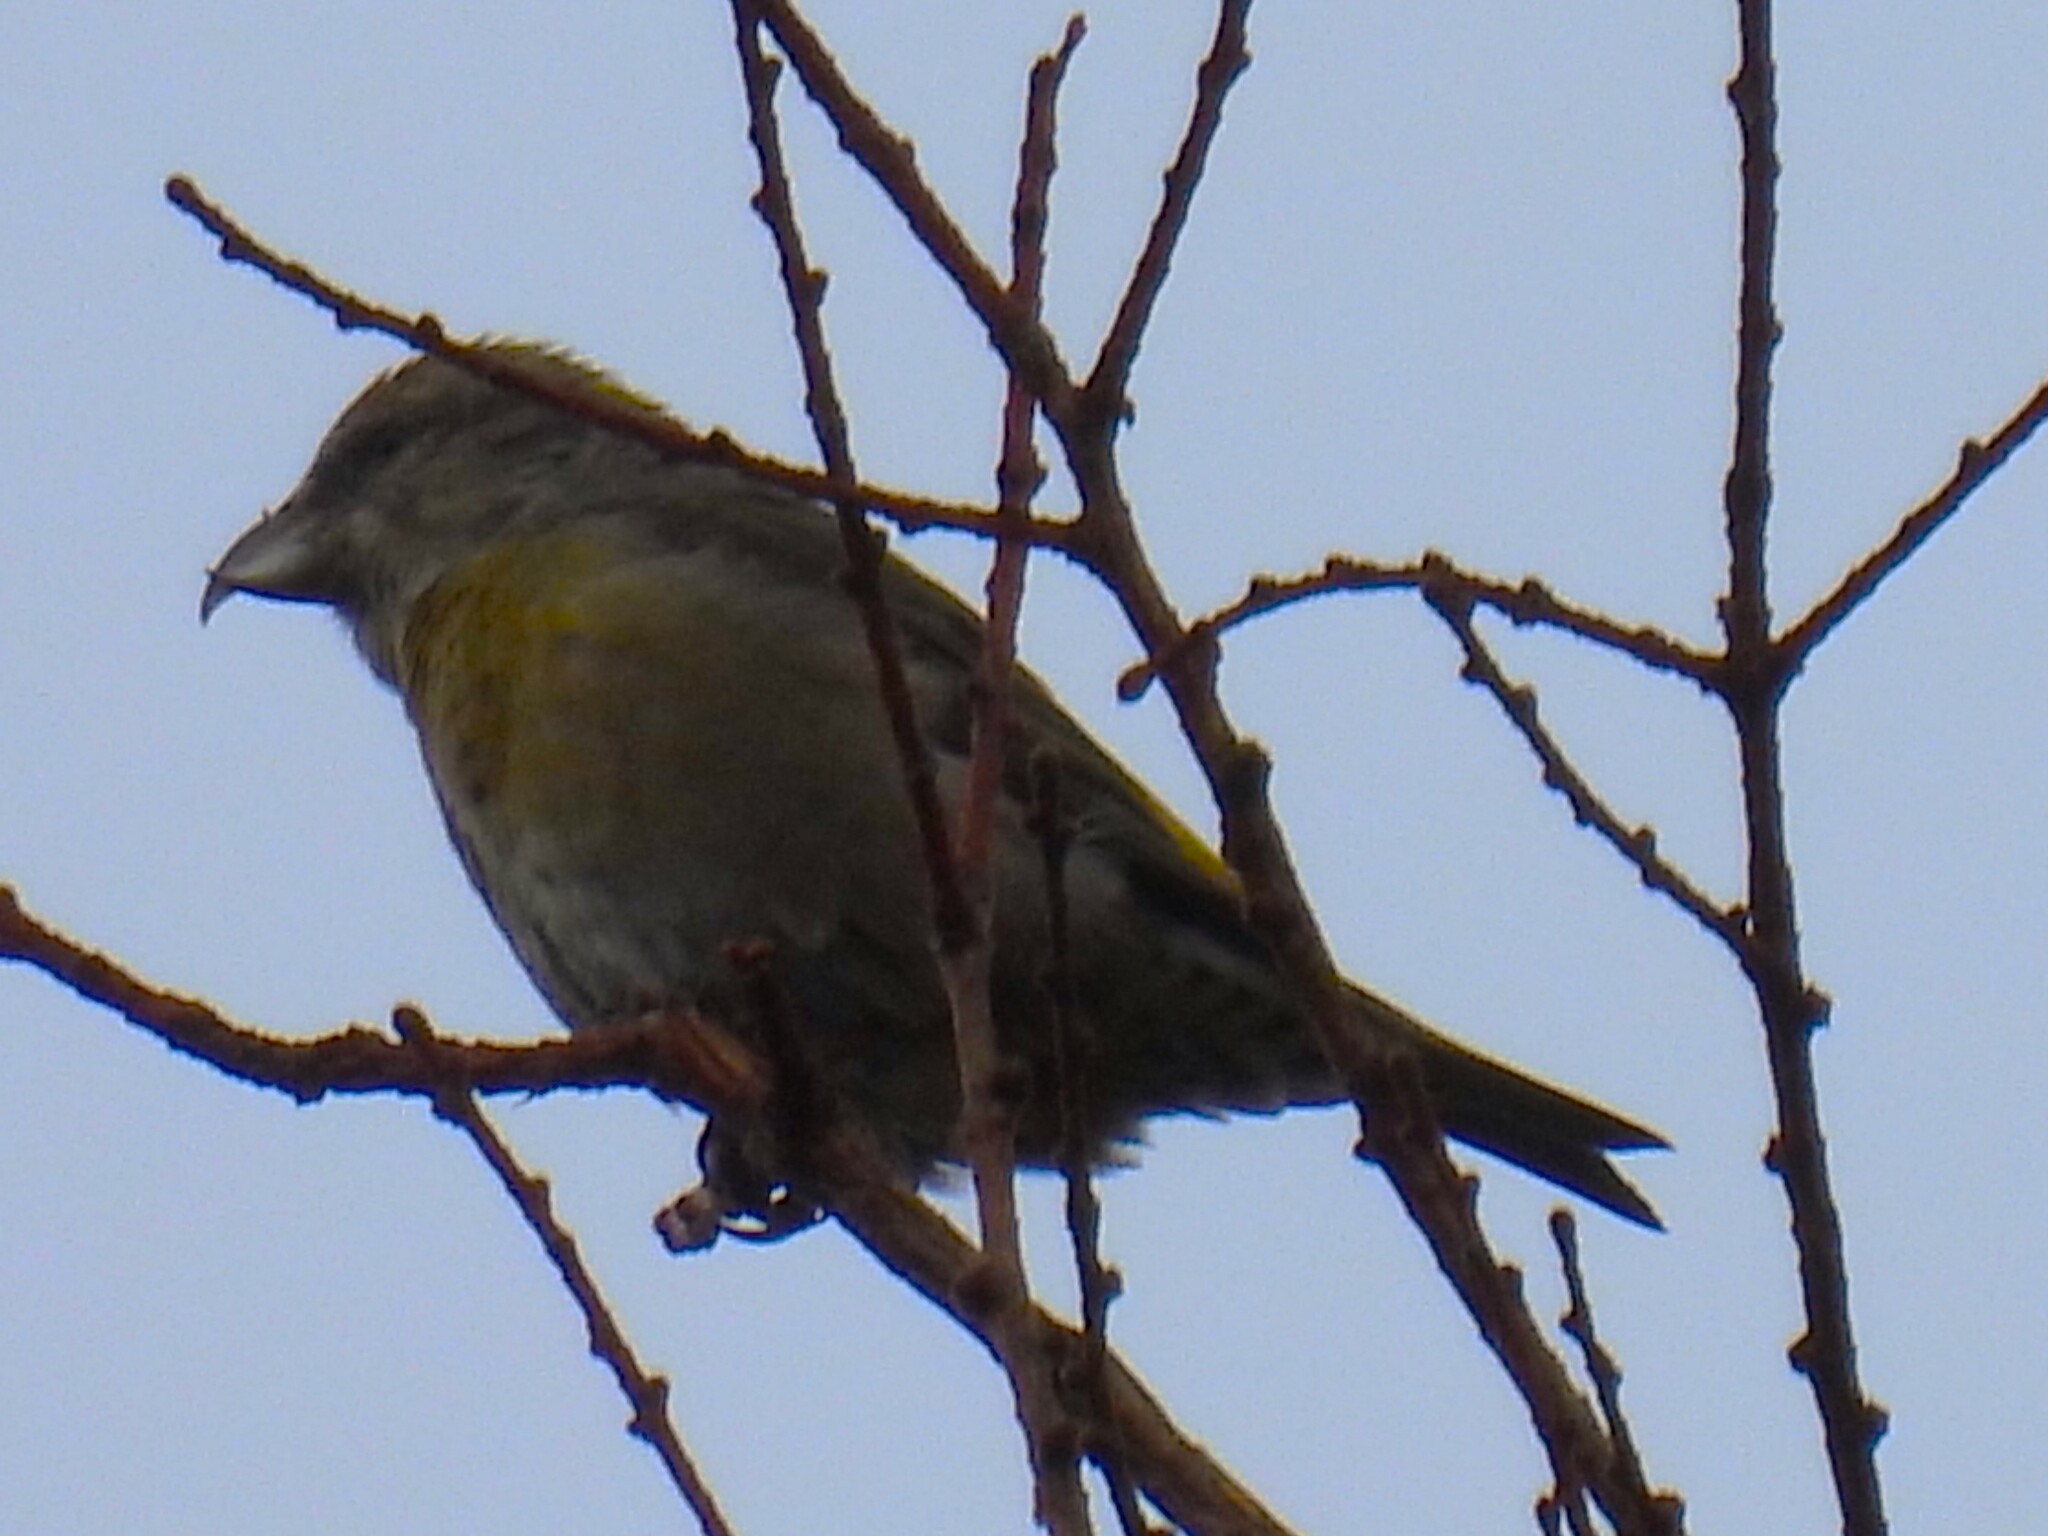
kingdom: Animalia
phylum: Chordata
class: Aves
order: Passeriformes
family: Fringillidae
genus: Loxia
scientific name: Loxia curvirostra
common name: Red crossbill
